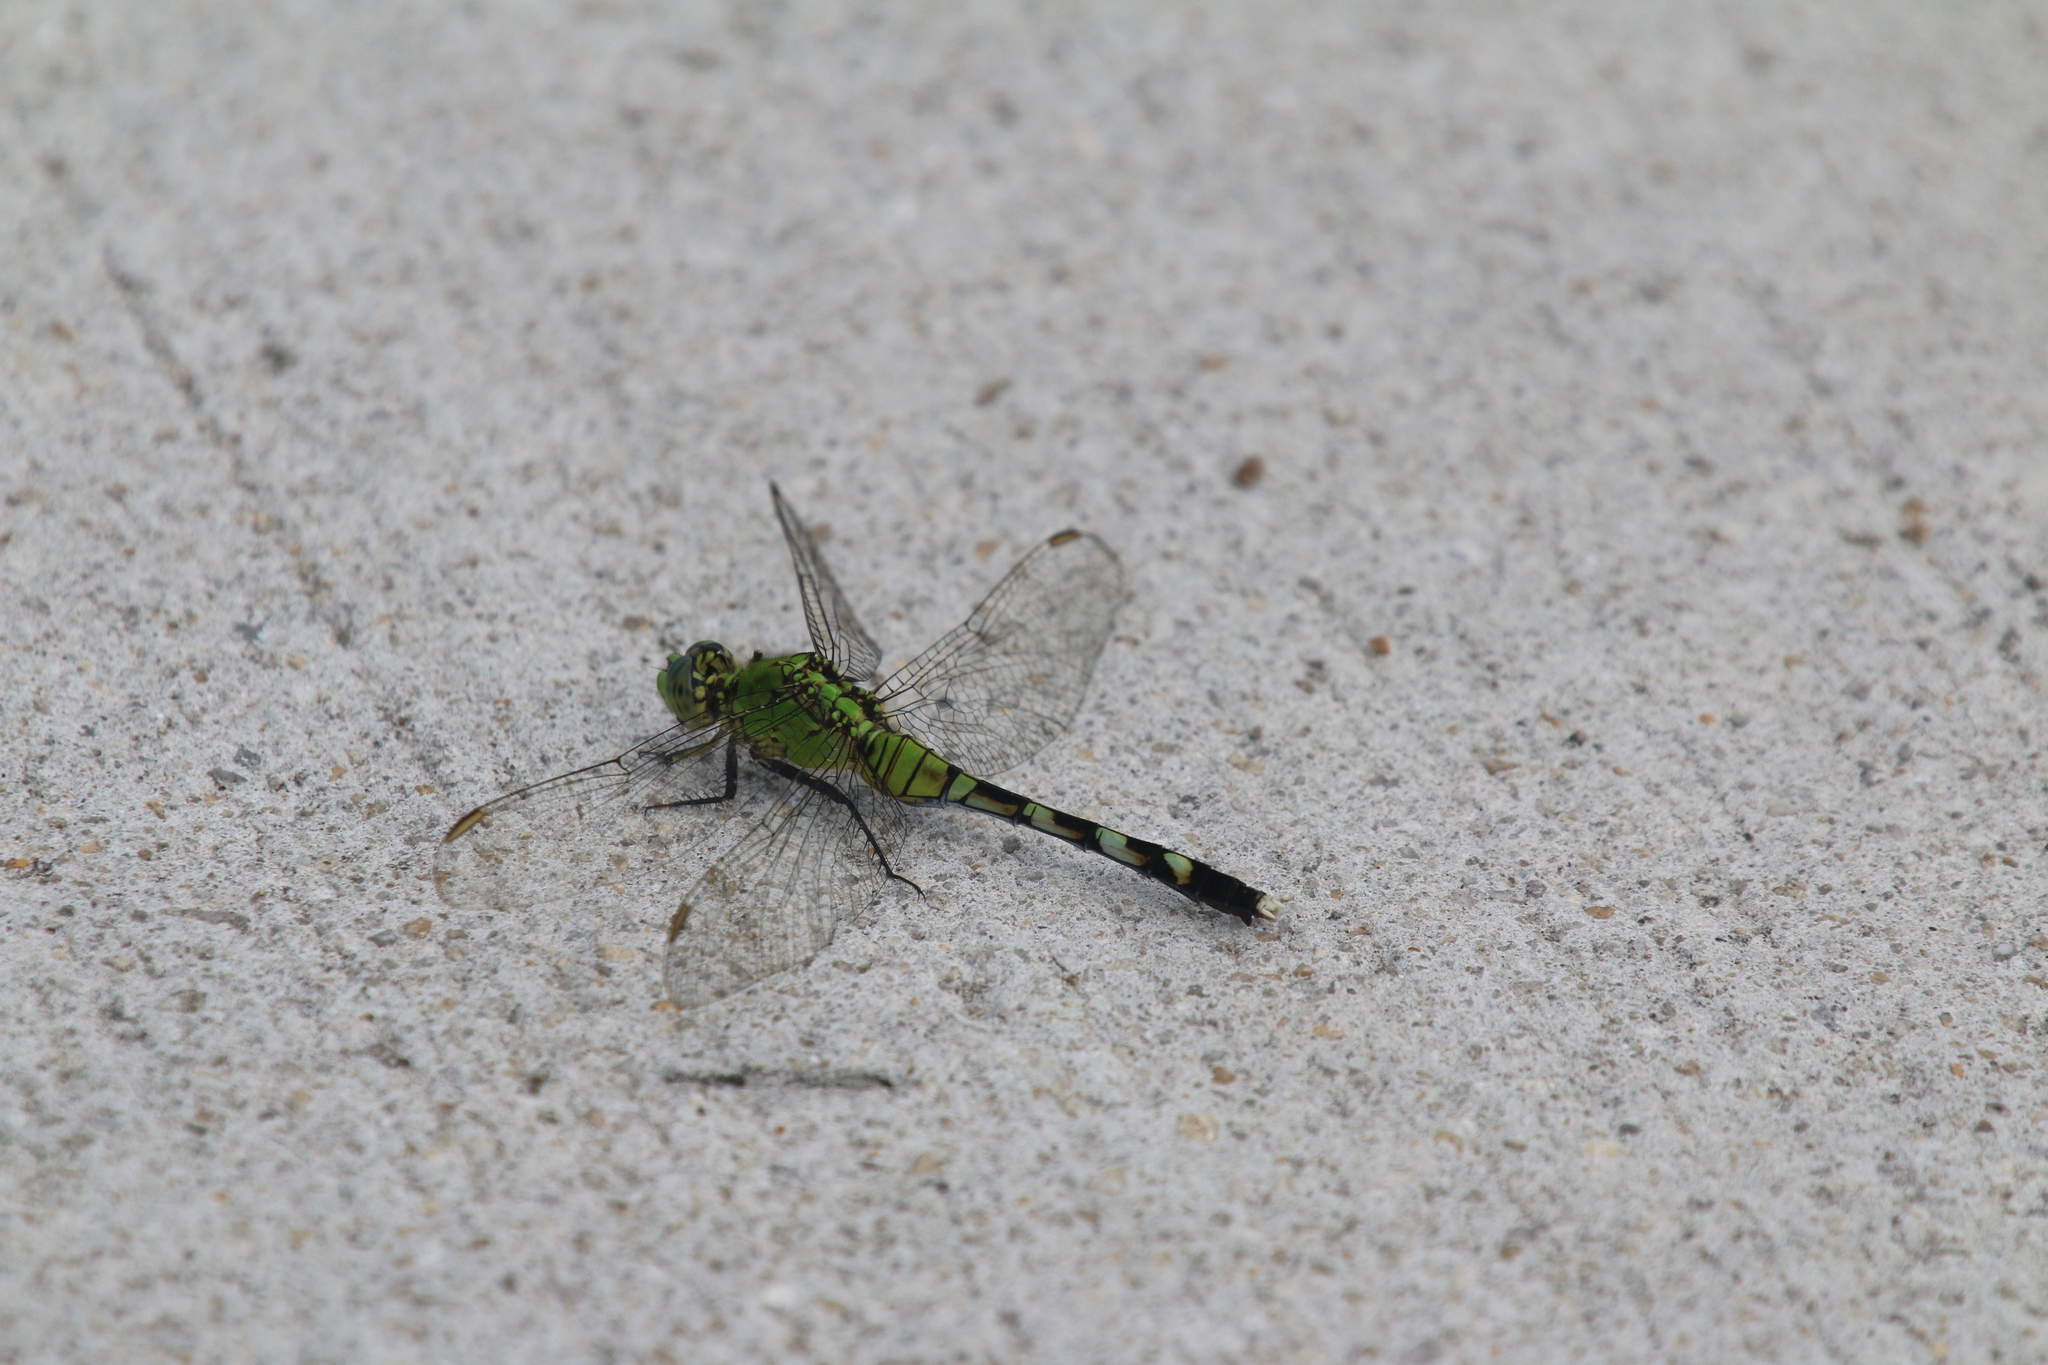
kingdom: Animalia
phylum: Arthropoda
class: Insecta
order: Odonata
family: Libellulidae
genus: Erythemis
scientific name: Erythemis simplicicollis
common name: Eastern pondhawk
